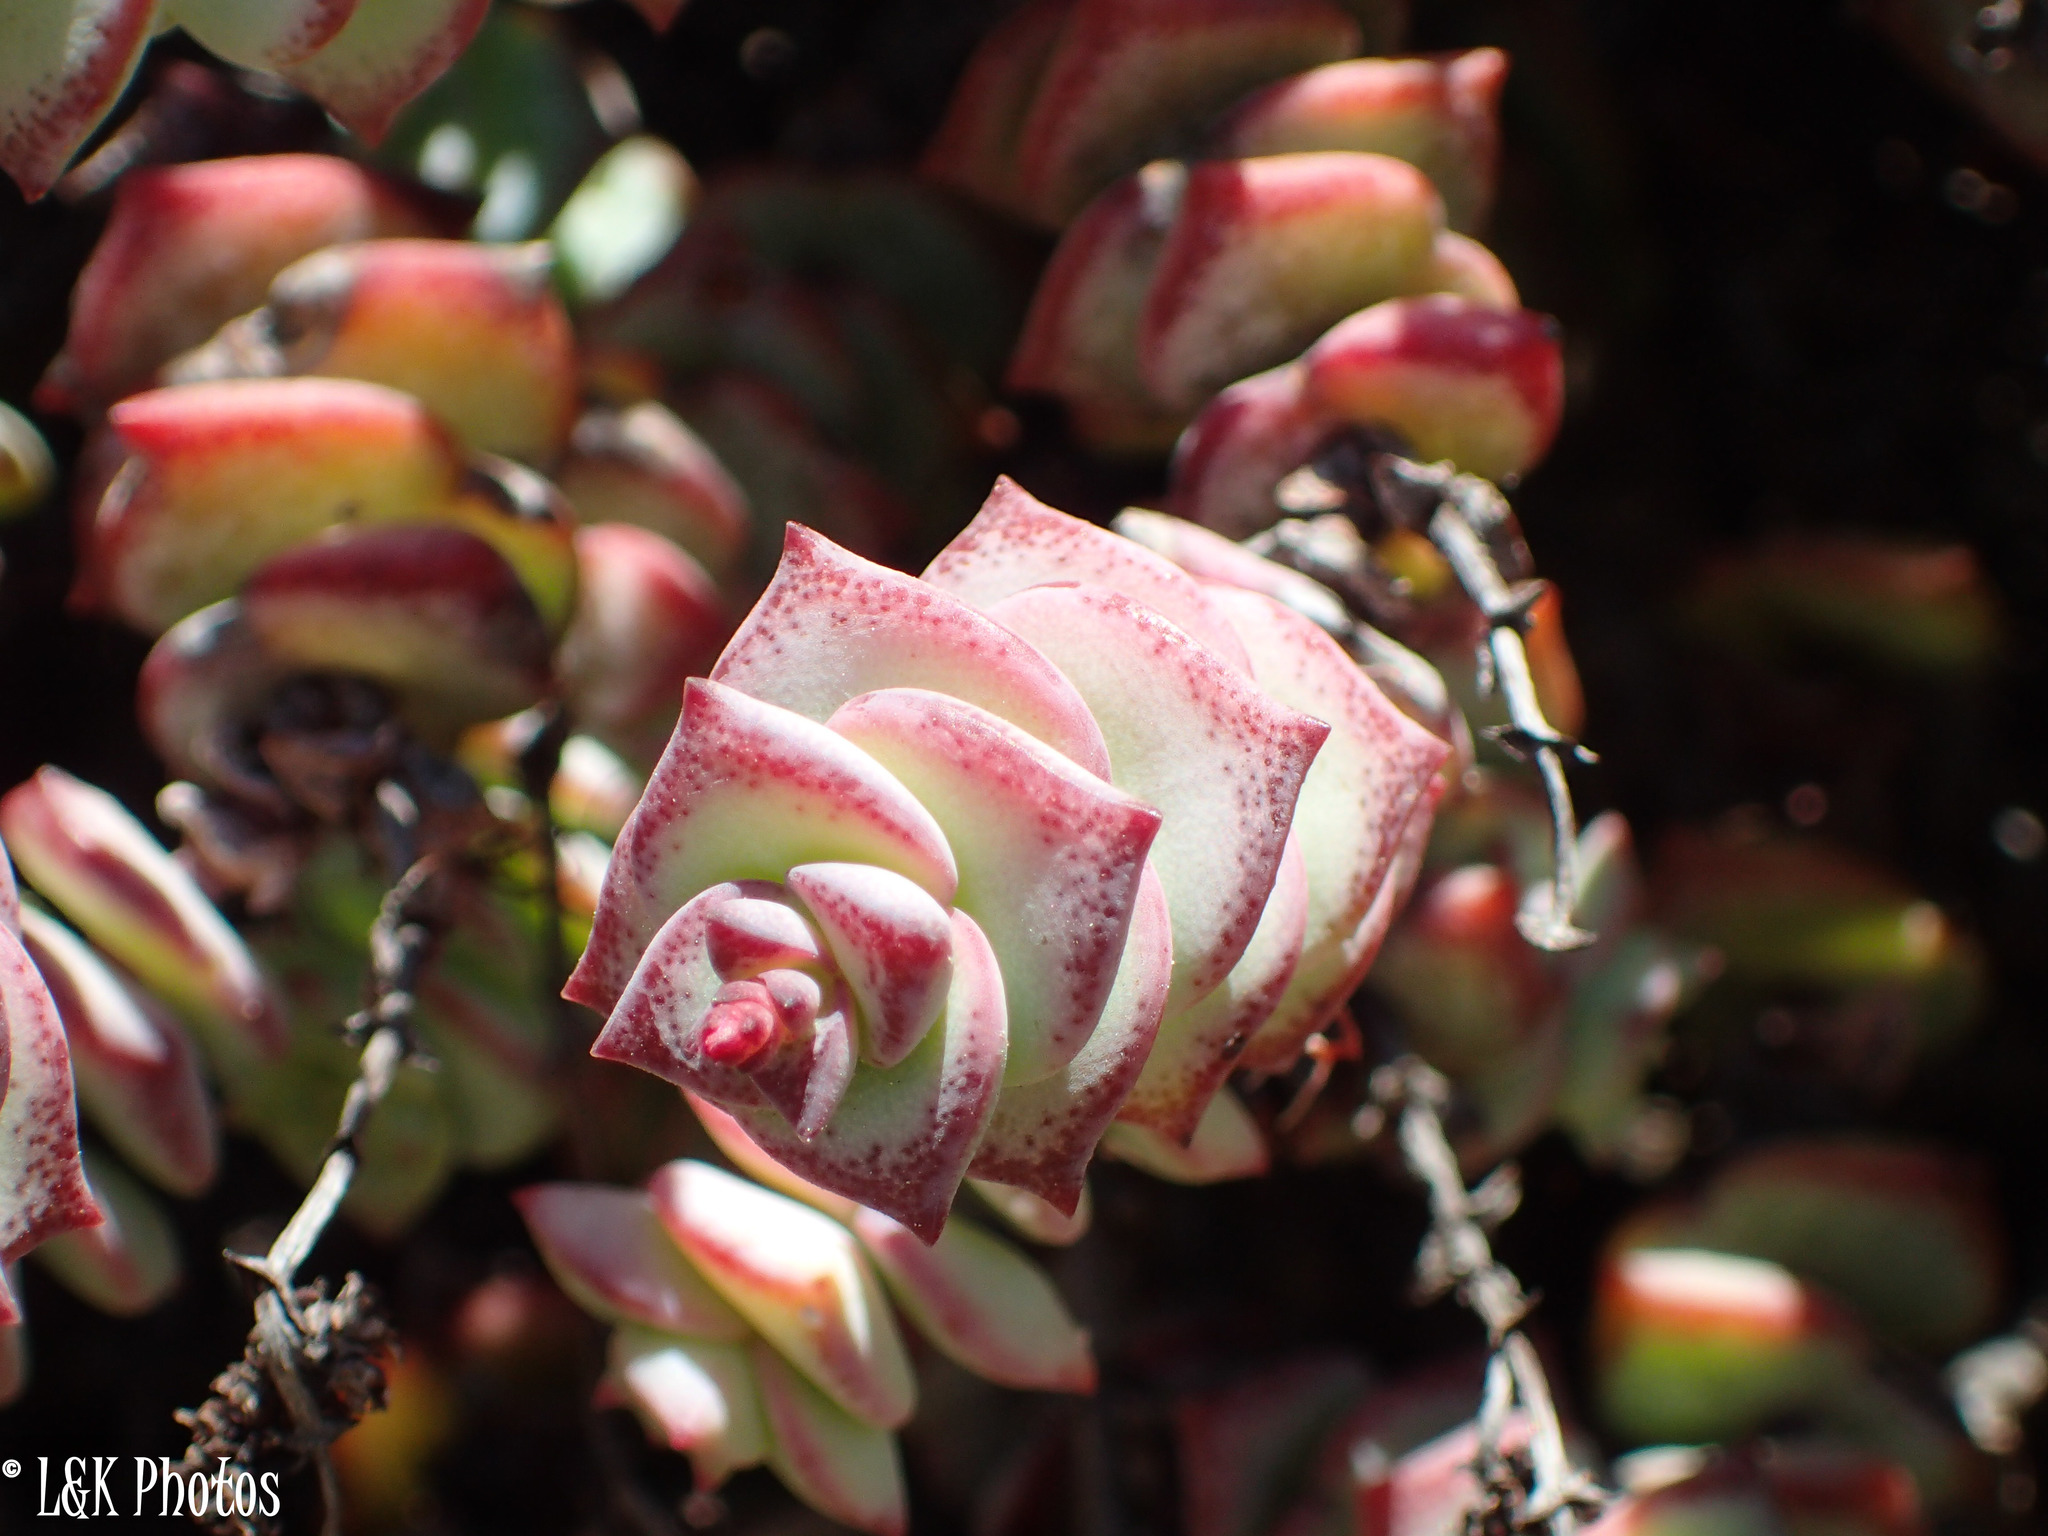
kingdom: Plantae
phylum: Tracheophyta
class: Magnoliopsida
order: Saxifragales
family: Crassulaceae
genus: Crassula
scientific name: Crassula perforata
